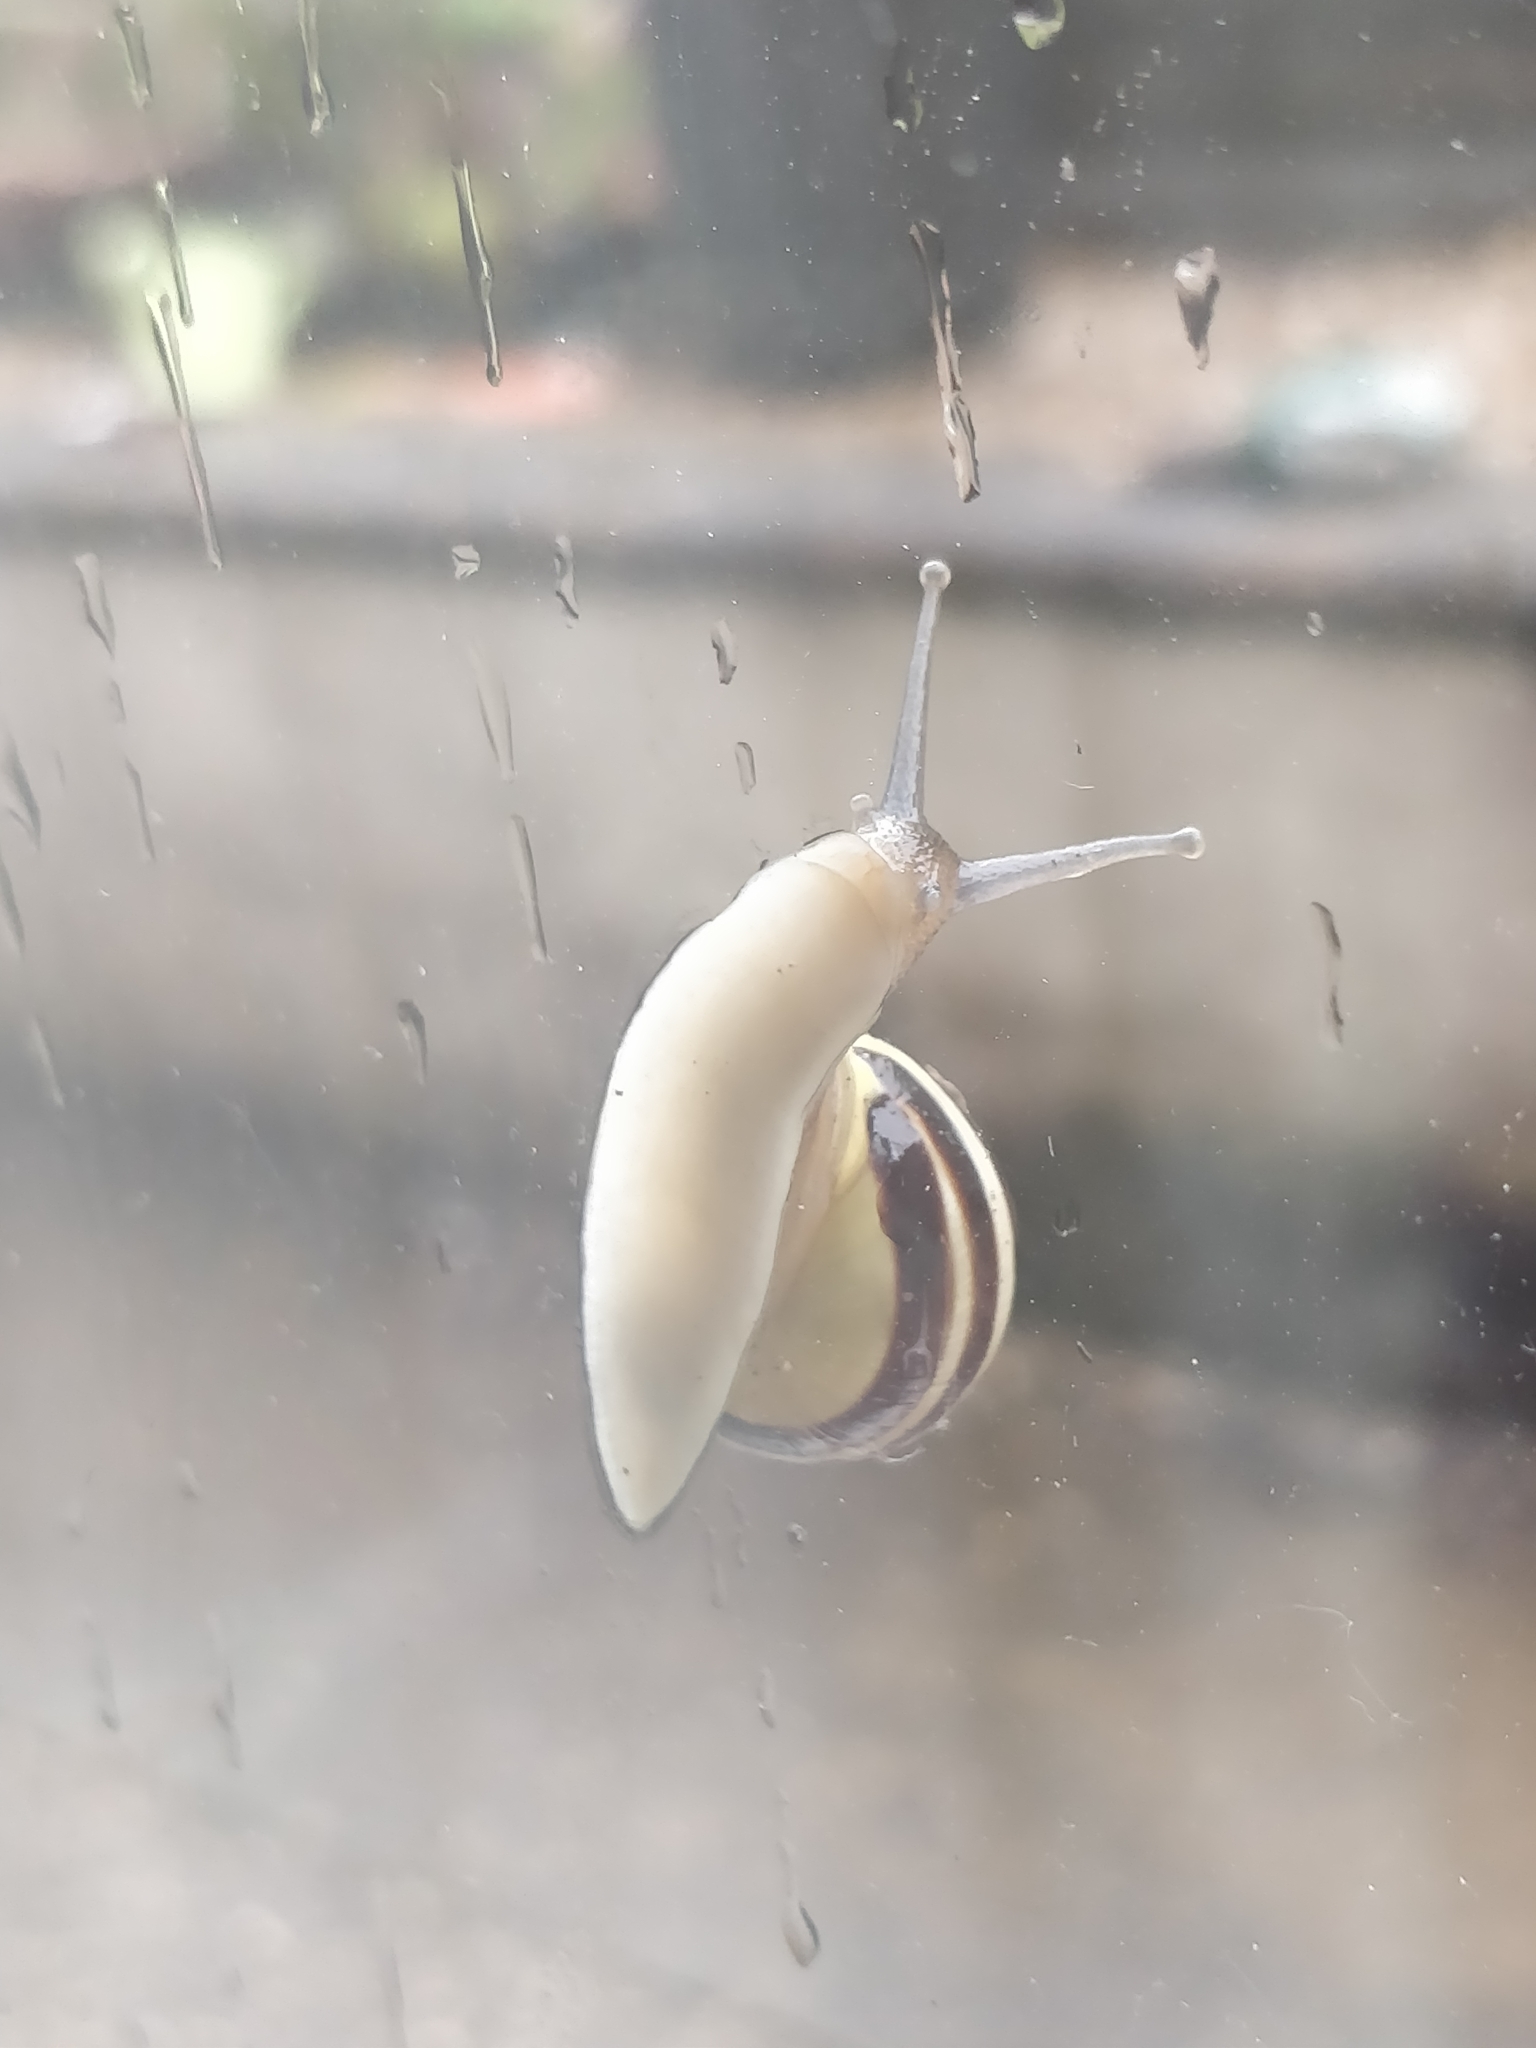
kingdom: Animalia
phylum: Mollusca
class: Gastropoda
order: Stylommatophora
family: Helicidae
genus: Cepaea
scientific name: Cepaea hortensis
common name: White-lip gardensnail
